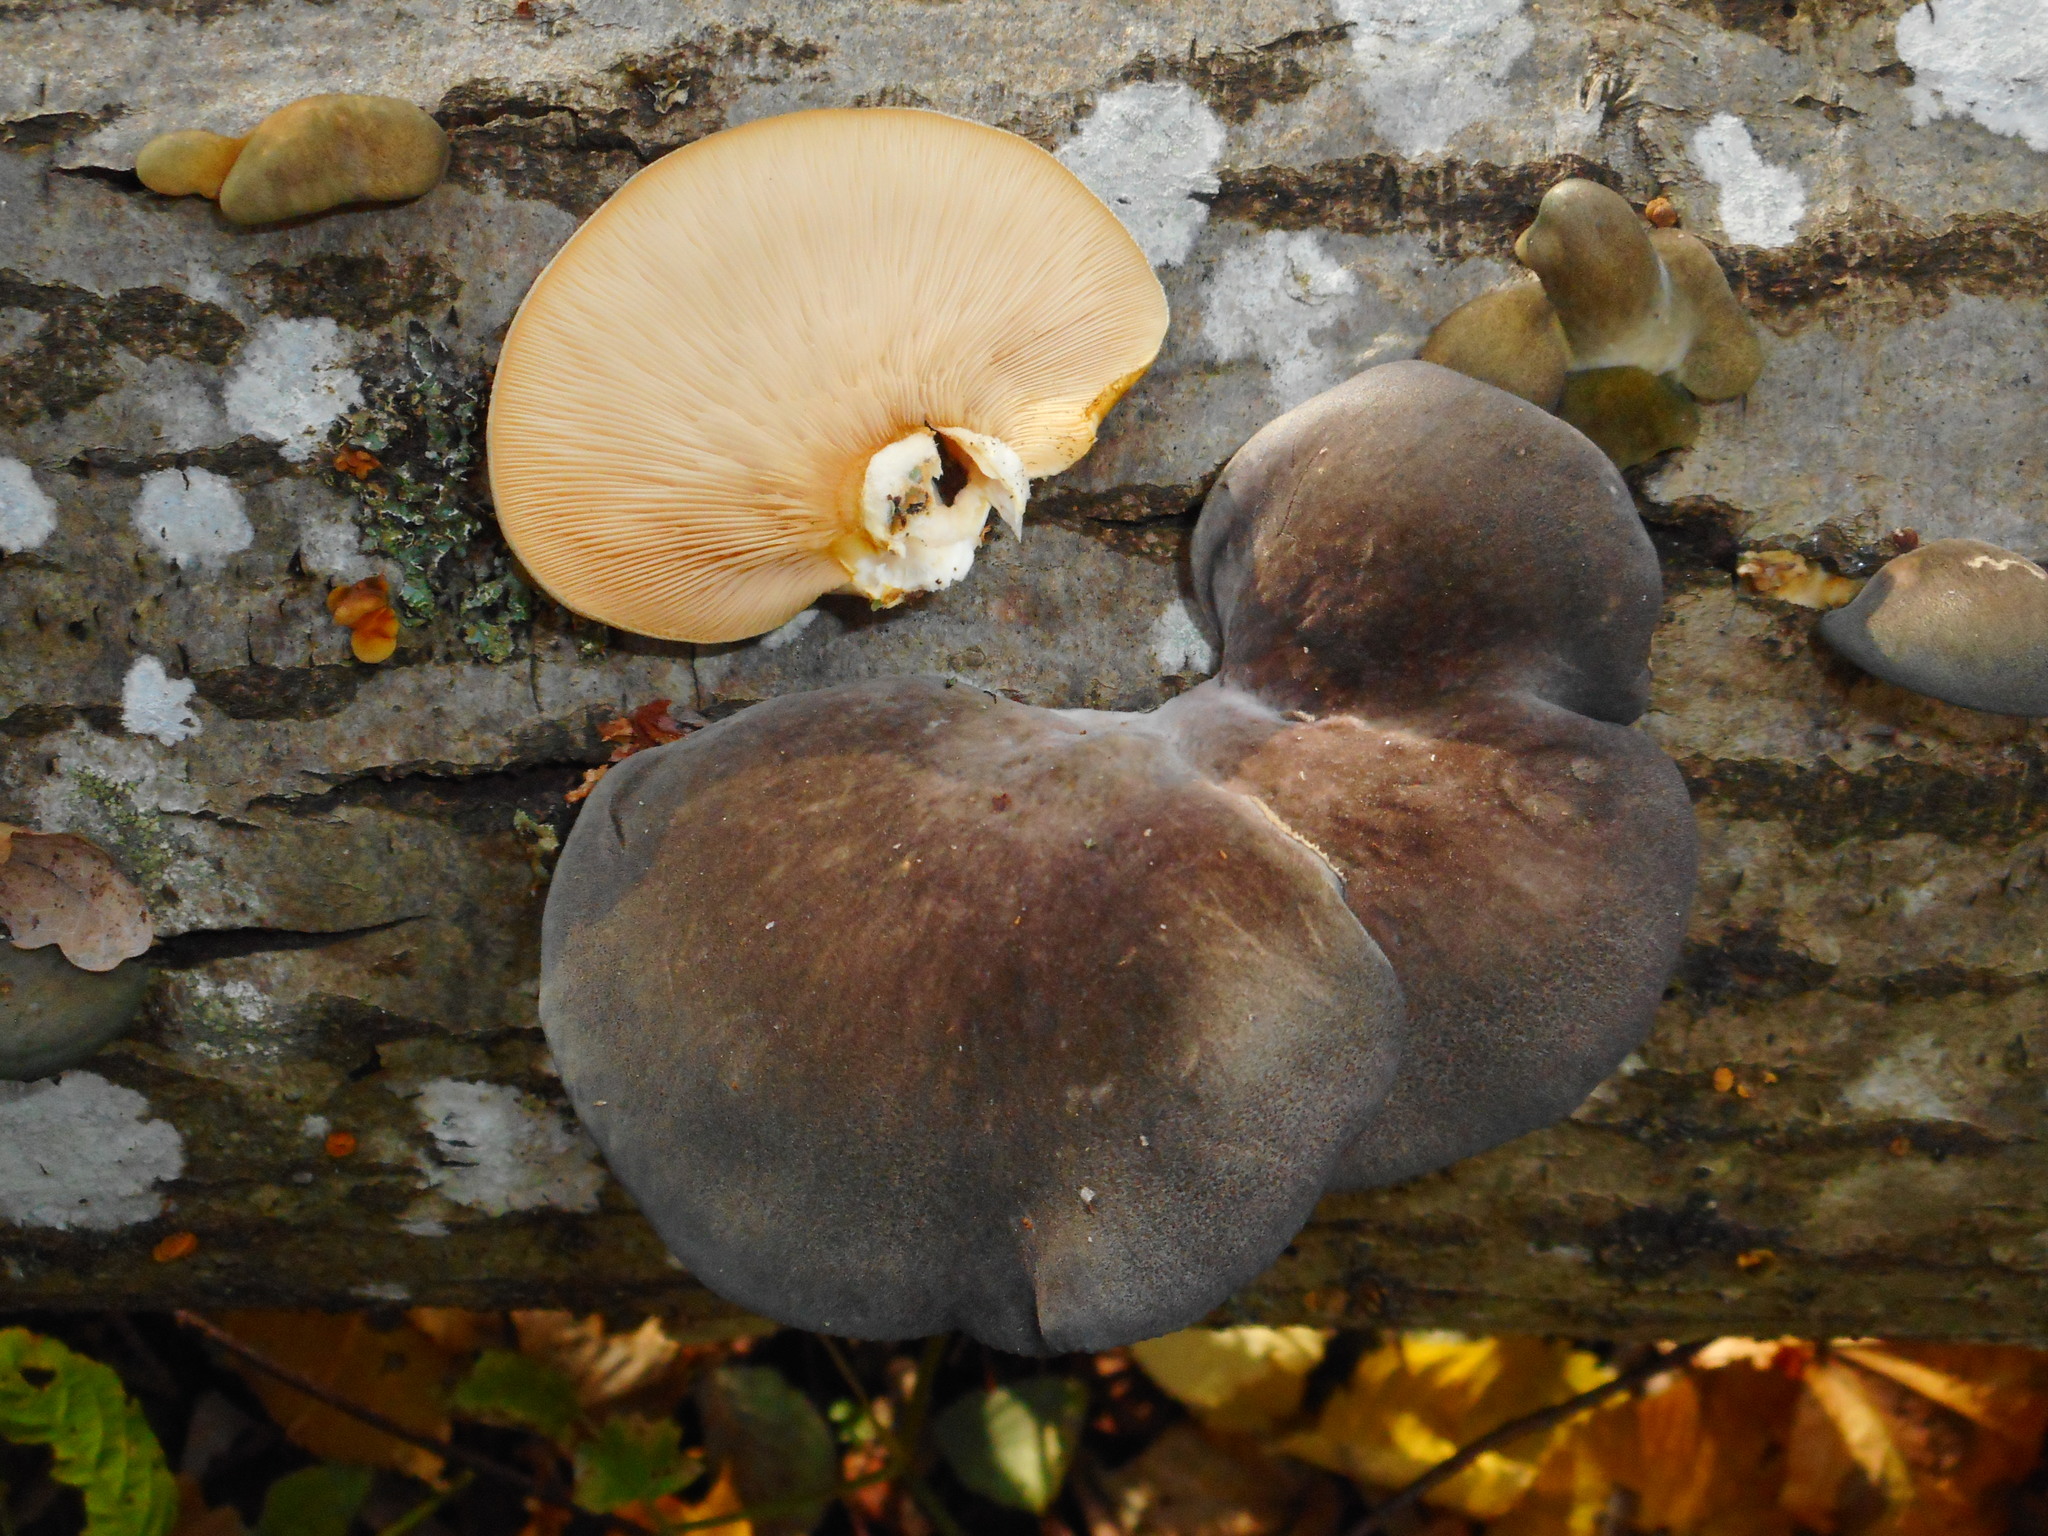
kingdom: Fungi
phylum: Basidiomycota
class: Agaricomycetes
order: Agaricales
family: Sarcomyxaceae
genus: Sarcomyxa
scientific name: Sarcomyxa serotina
